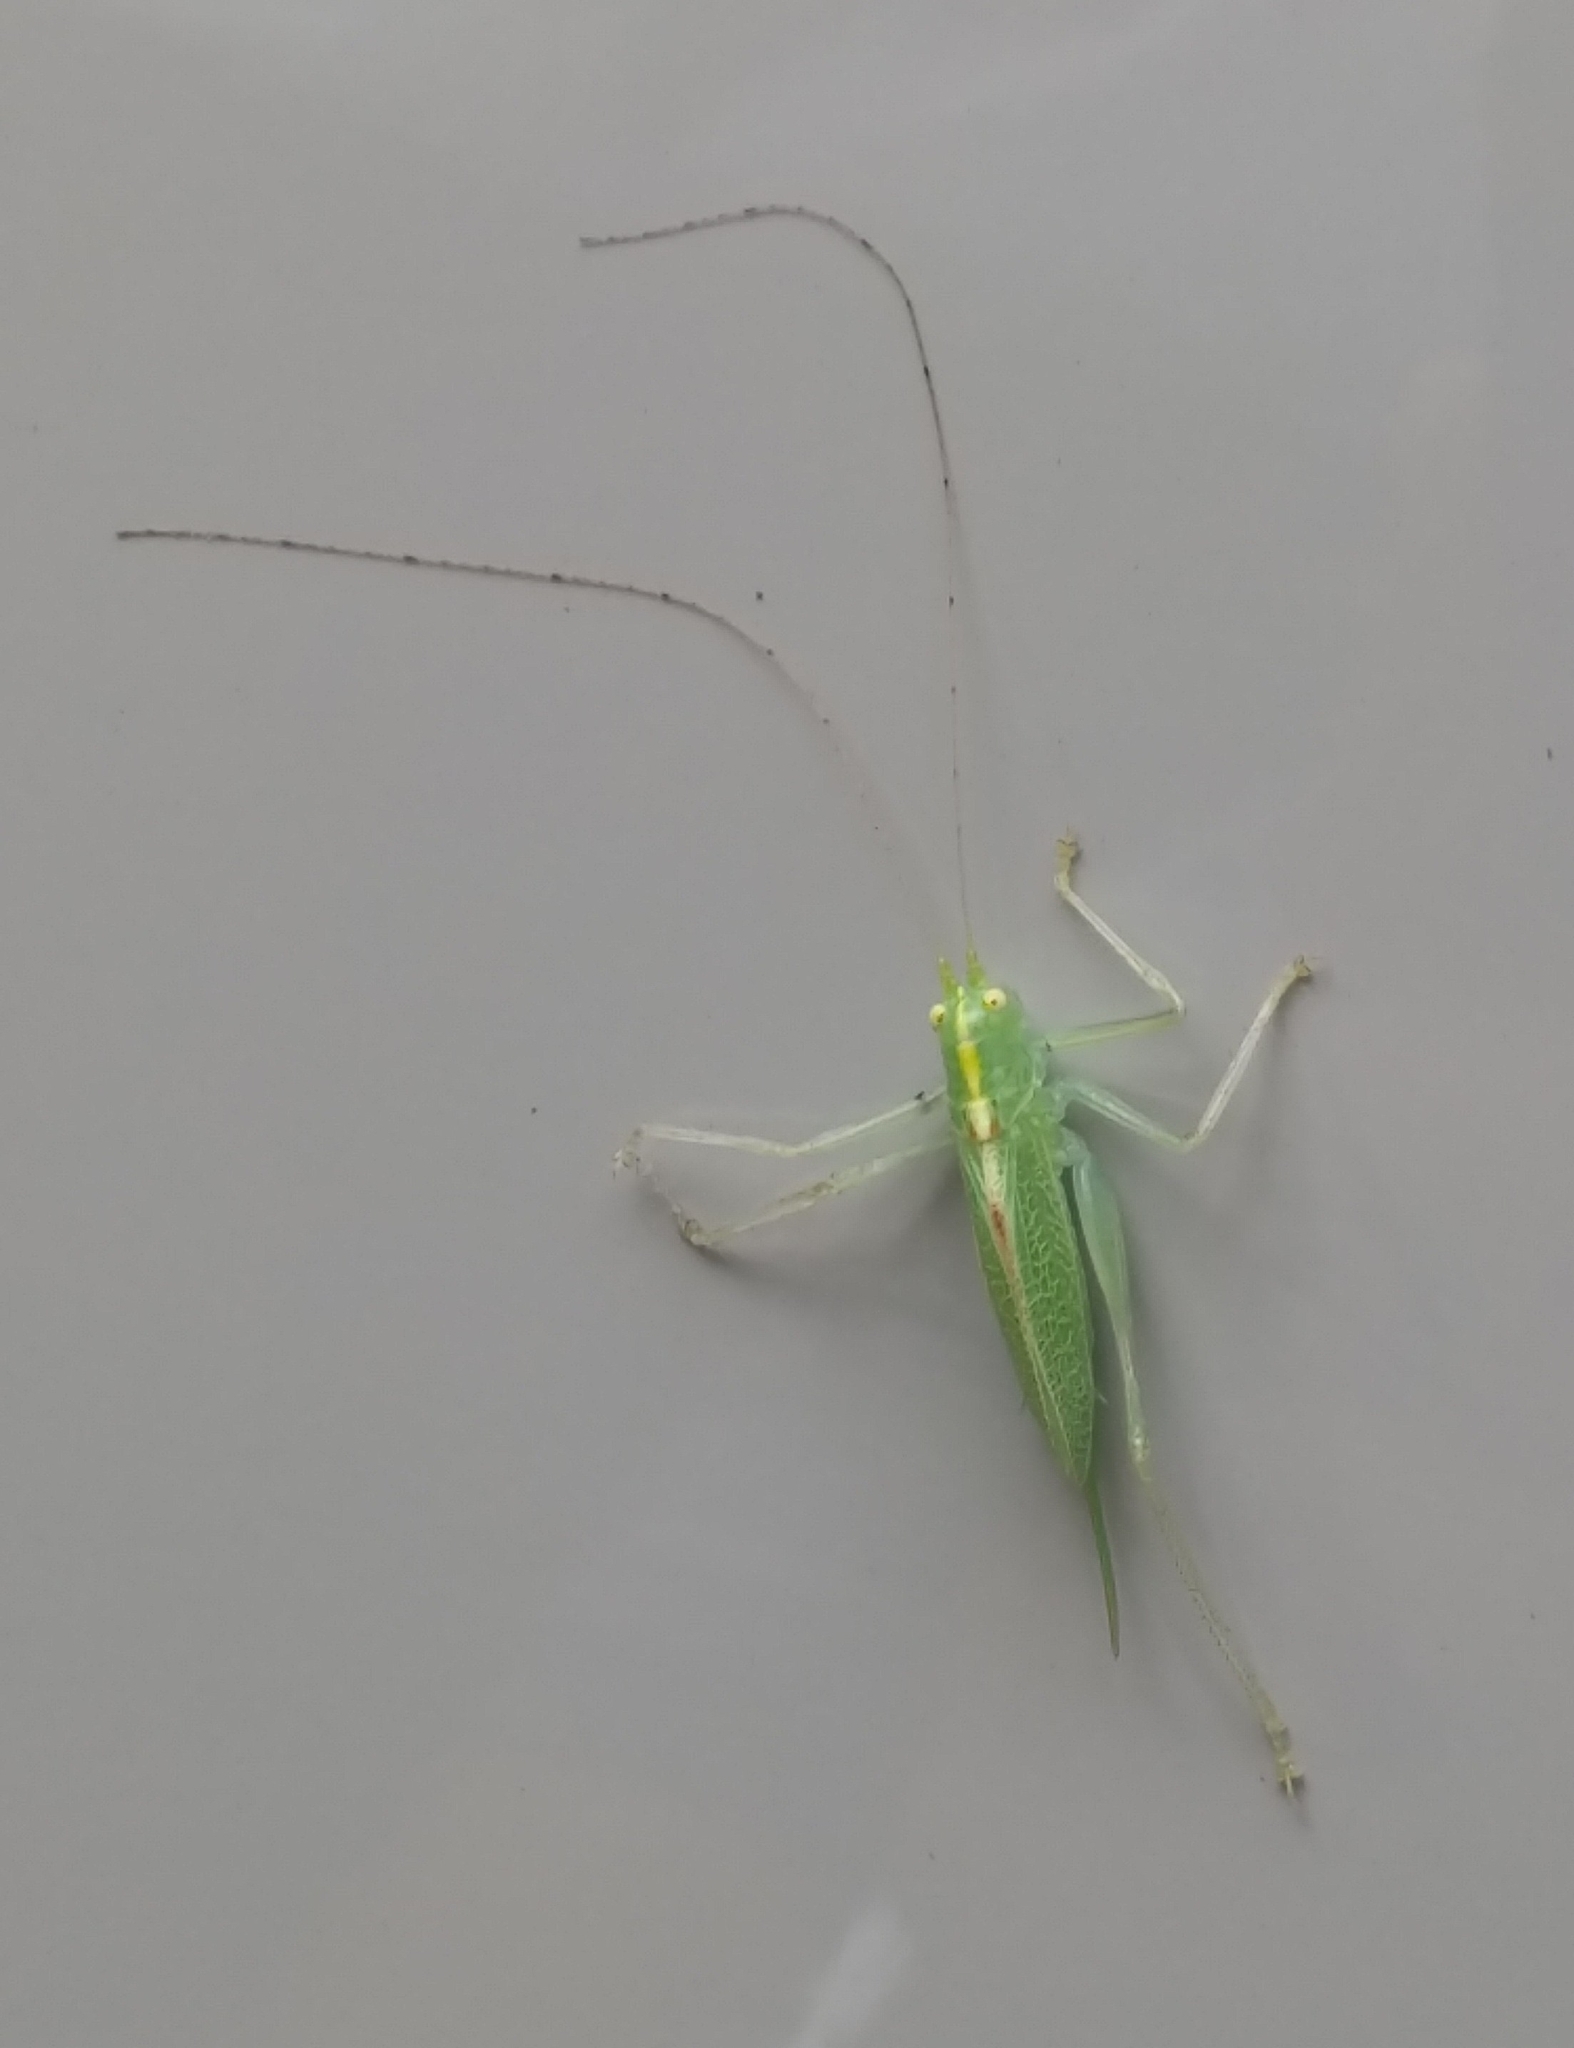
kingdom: Animalia
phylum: Arthropoda
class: Insecta
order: Orthoptera
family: Tettigoniidae
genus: Meconema
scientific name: Meconema thalassinum
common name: Oak bush-cricket
